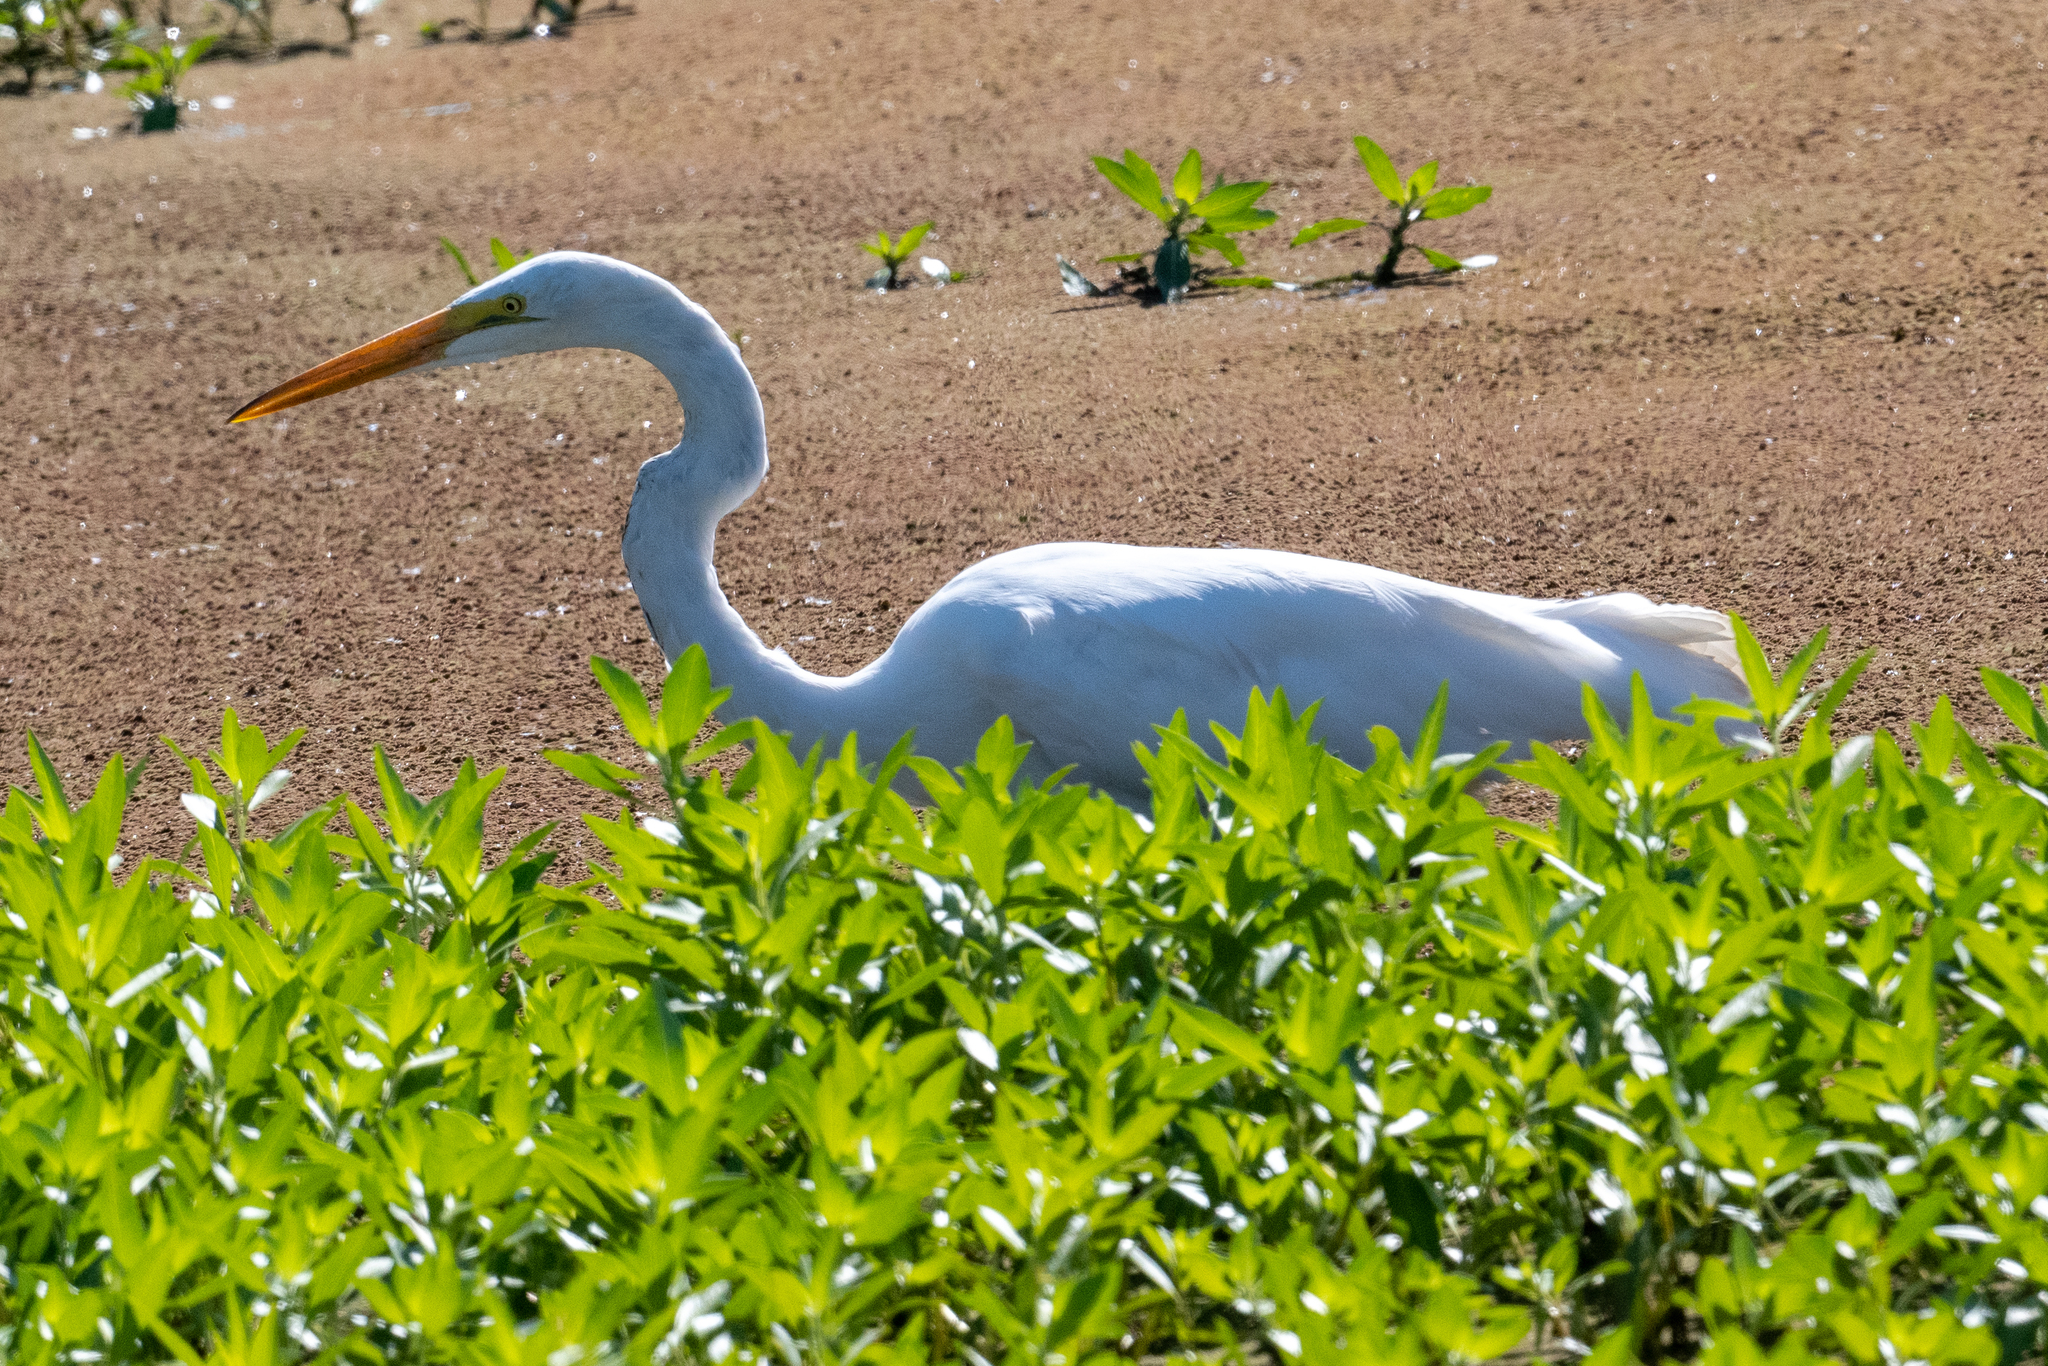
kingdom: Animalia
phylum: Chordata
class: Aves
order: Pelecaniformes
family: Ardeidae
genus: Ardea
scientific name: Ardea alba
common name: Great egret
